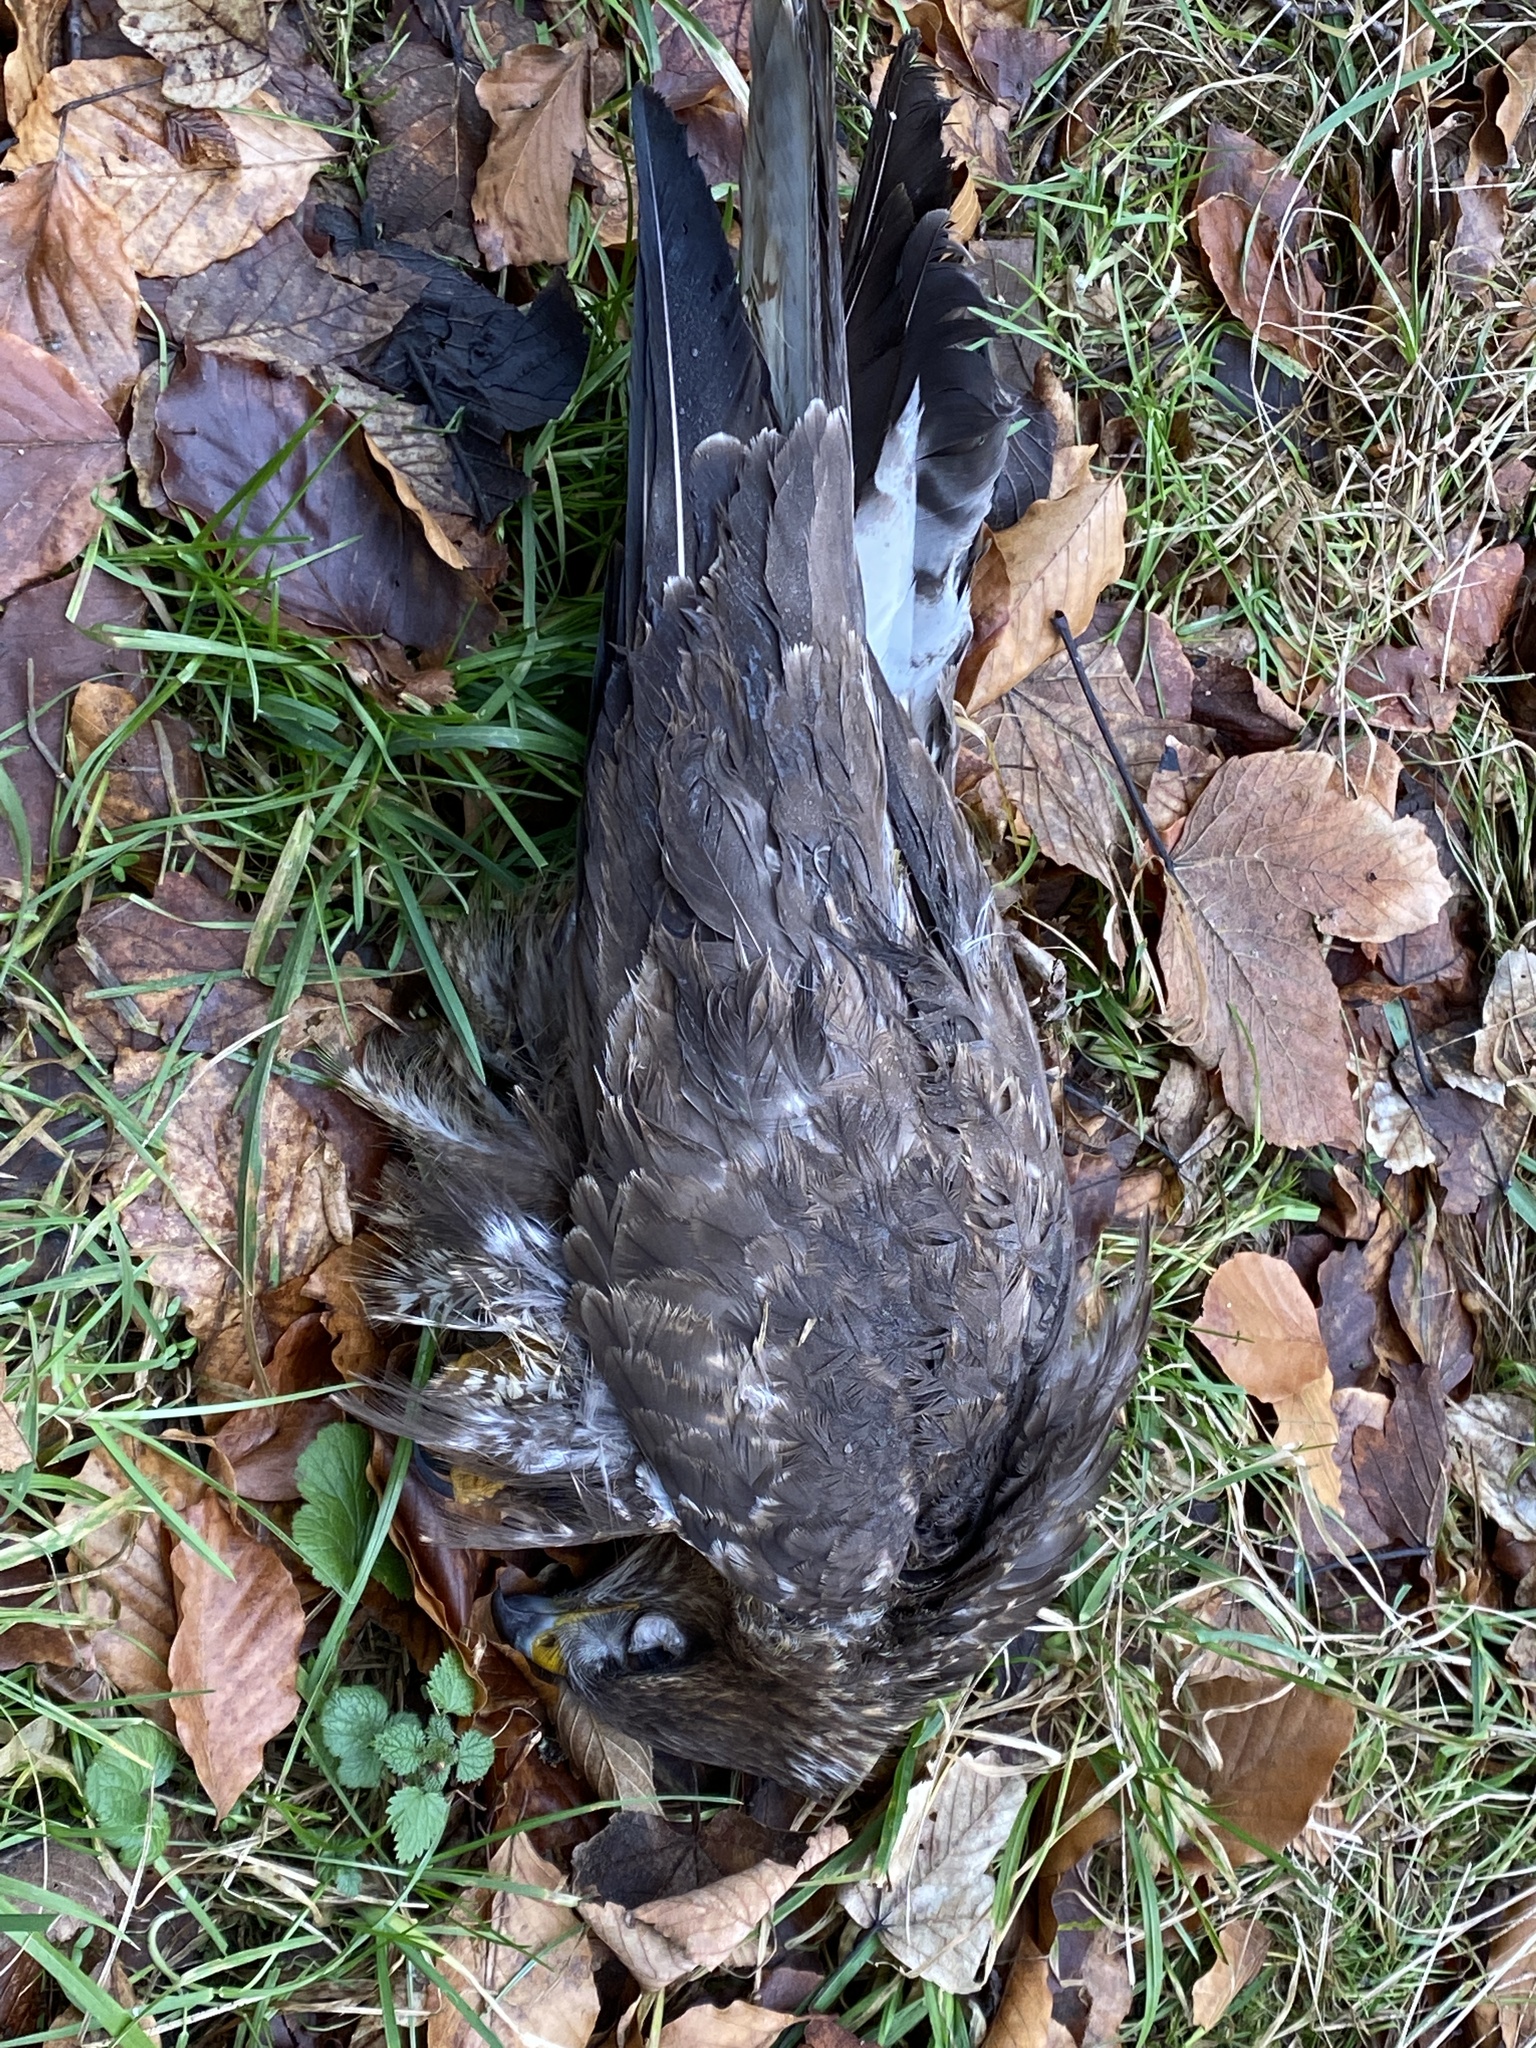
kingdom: Animalia
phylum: Chordata
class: Aves
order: Accipitriformes
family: Accipitridae
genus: Buteo
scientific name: Buteo buteo
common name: Common buzzard
